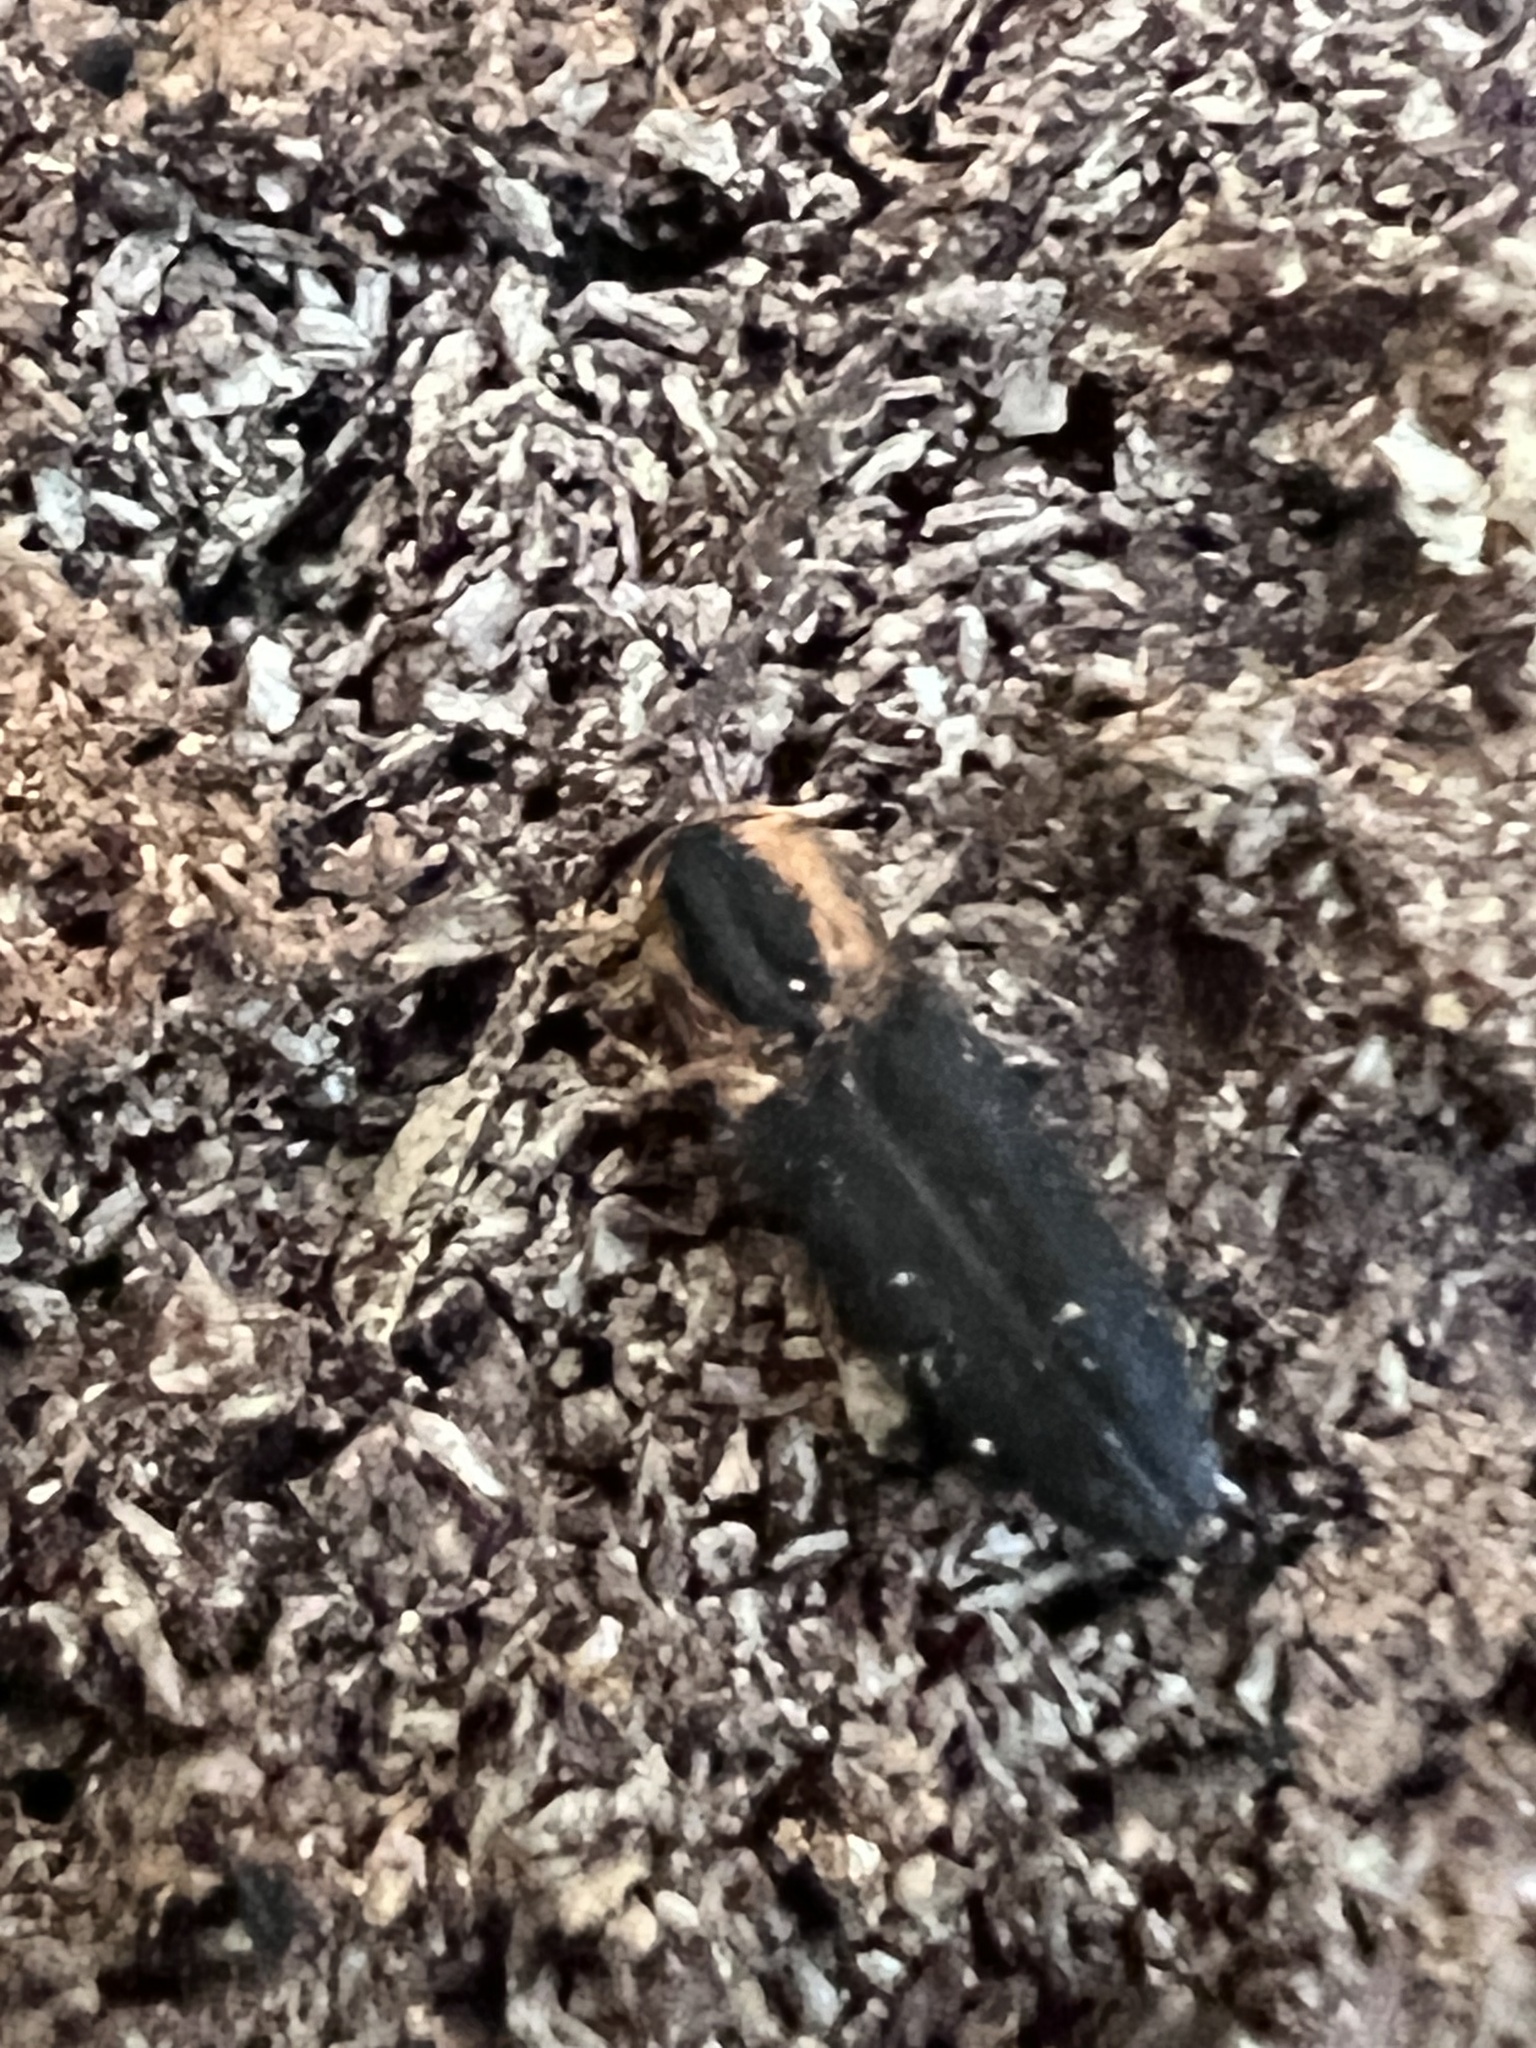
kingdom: Animalia
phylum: Arthropoda
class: Insecta
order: Coleoptera
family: Elateridae
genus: Lacon
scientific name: Lacon discoideus
